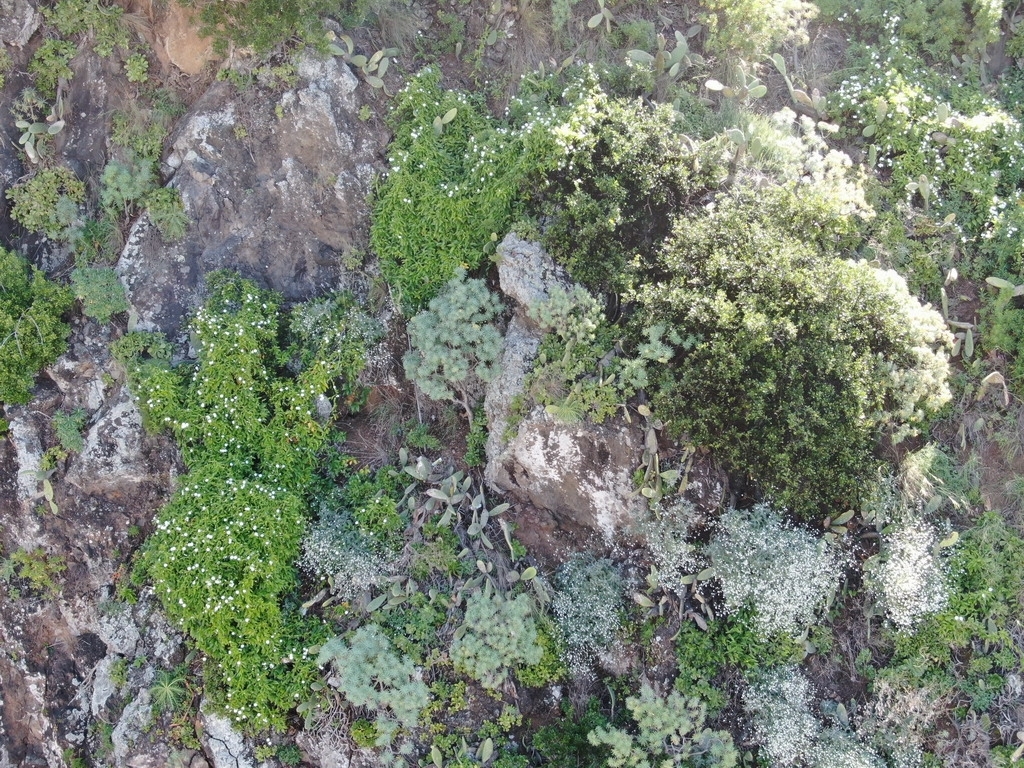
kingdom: Plantae
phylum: Tracheophyta
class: Magnoliopsida
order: Solanales
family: Convolvulaceae
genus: Convolvulus
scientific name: Convolvulus massonii
